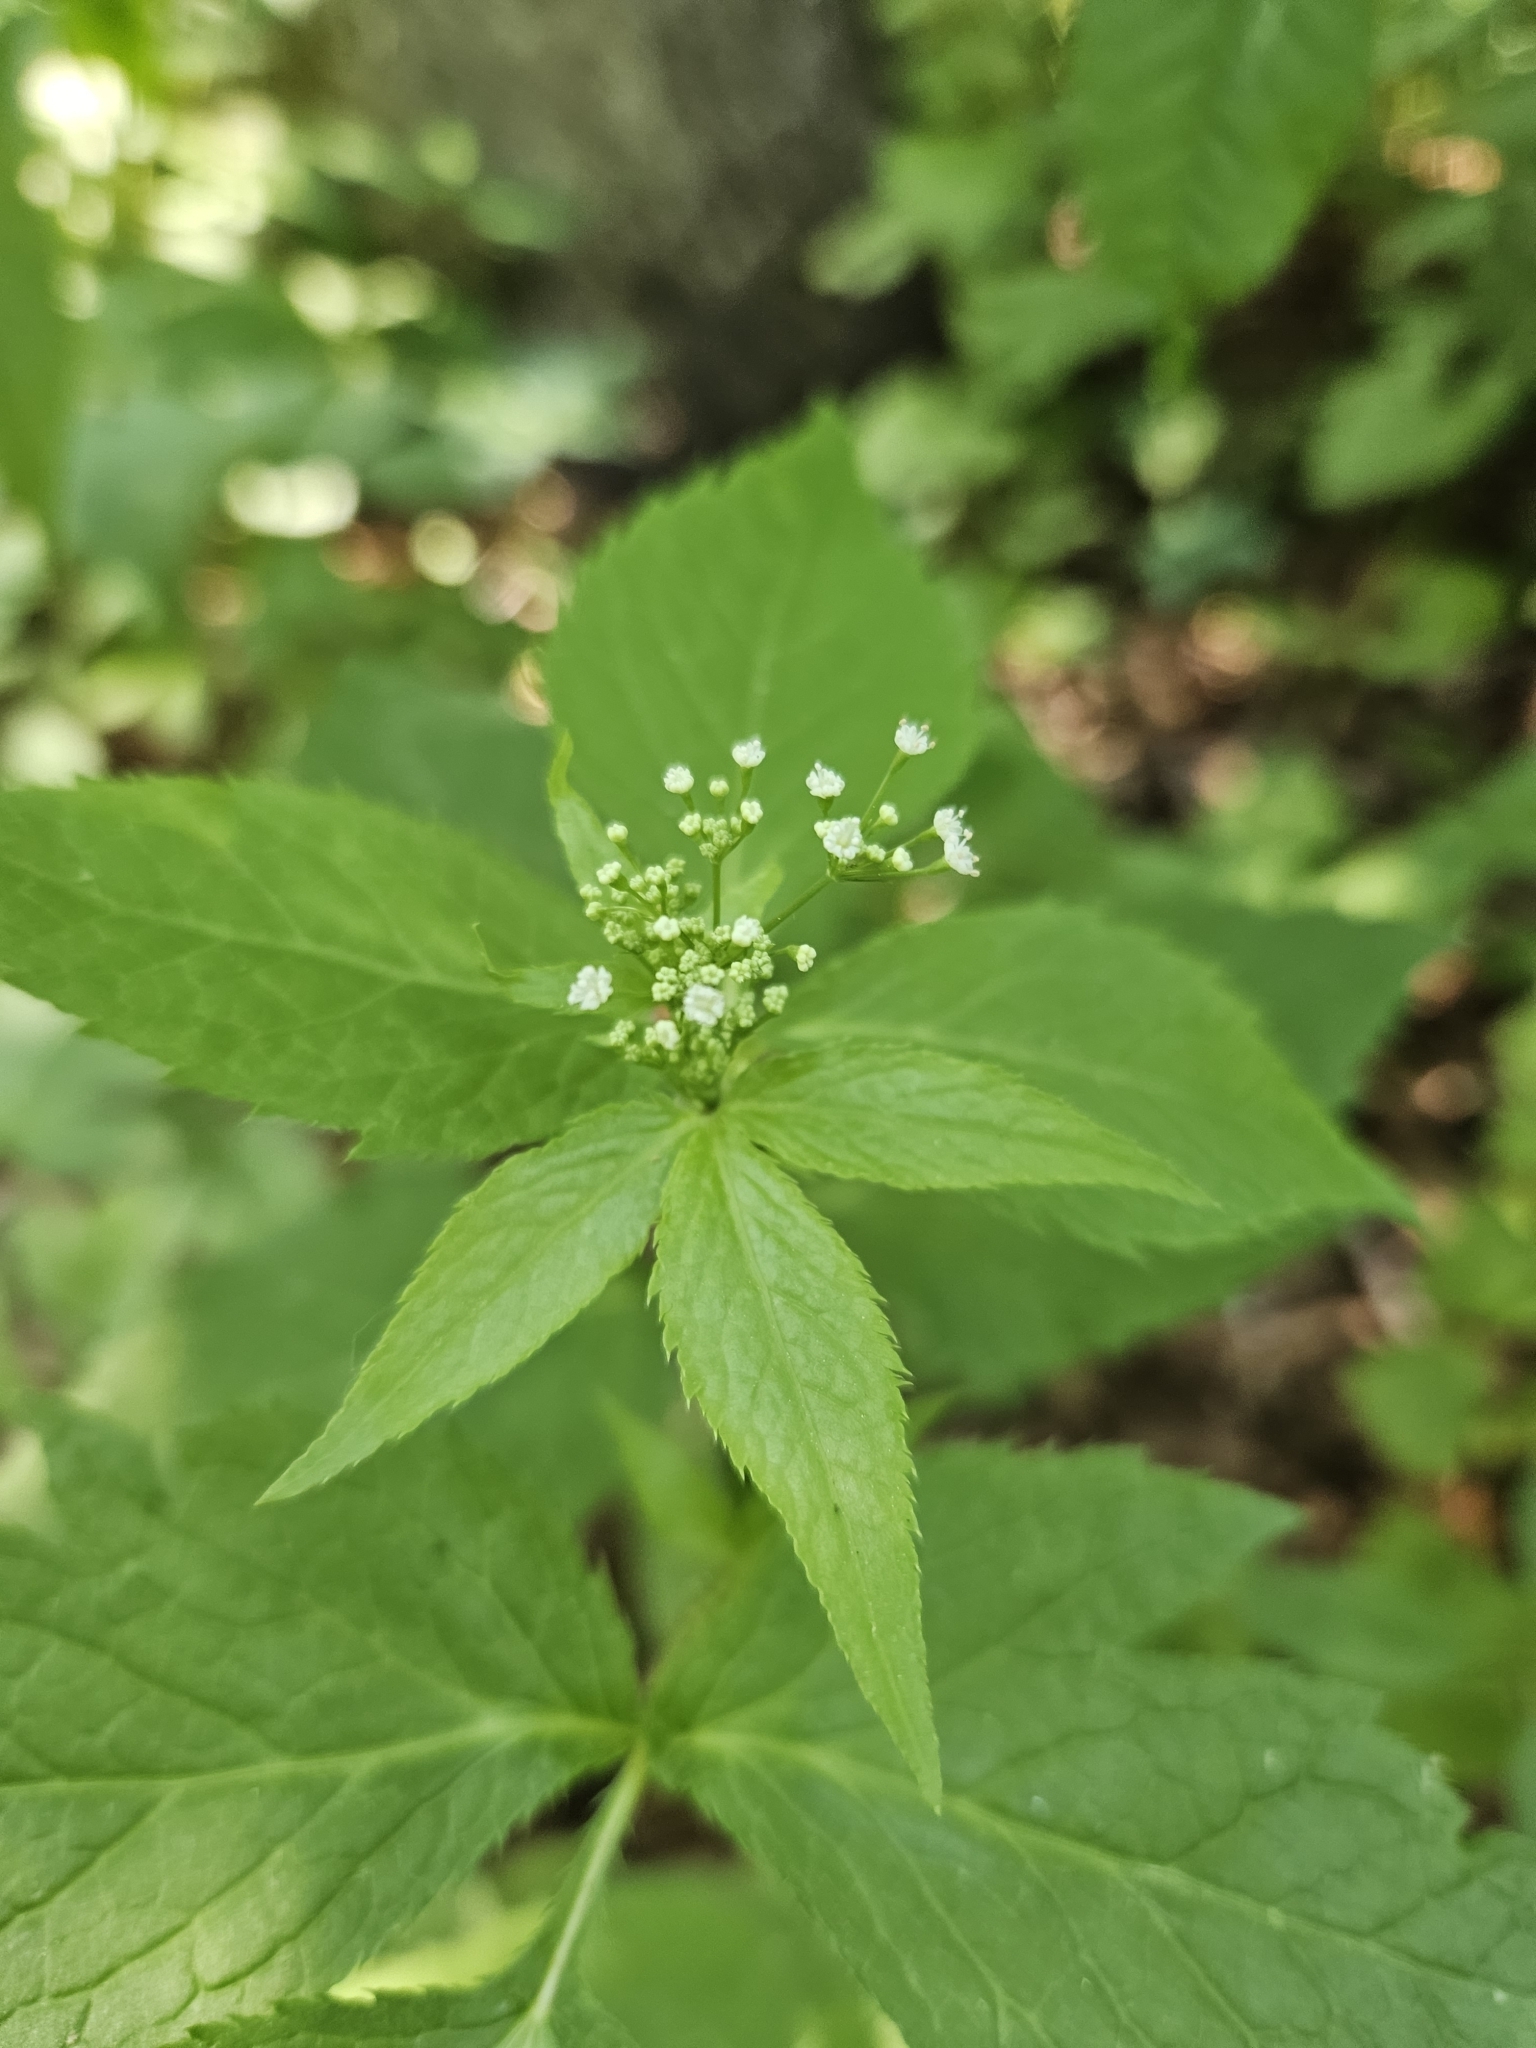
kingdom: Plantae
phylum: Tracheophyta
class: Magnoliopsida
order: Apiales
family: Apiaceae
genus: Cryptotaenia
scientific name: Cryptotaenia canadensis
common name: Honewort
